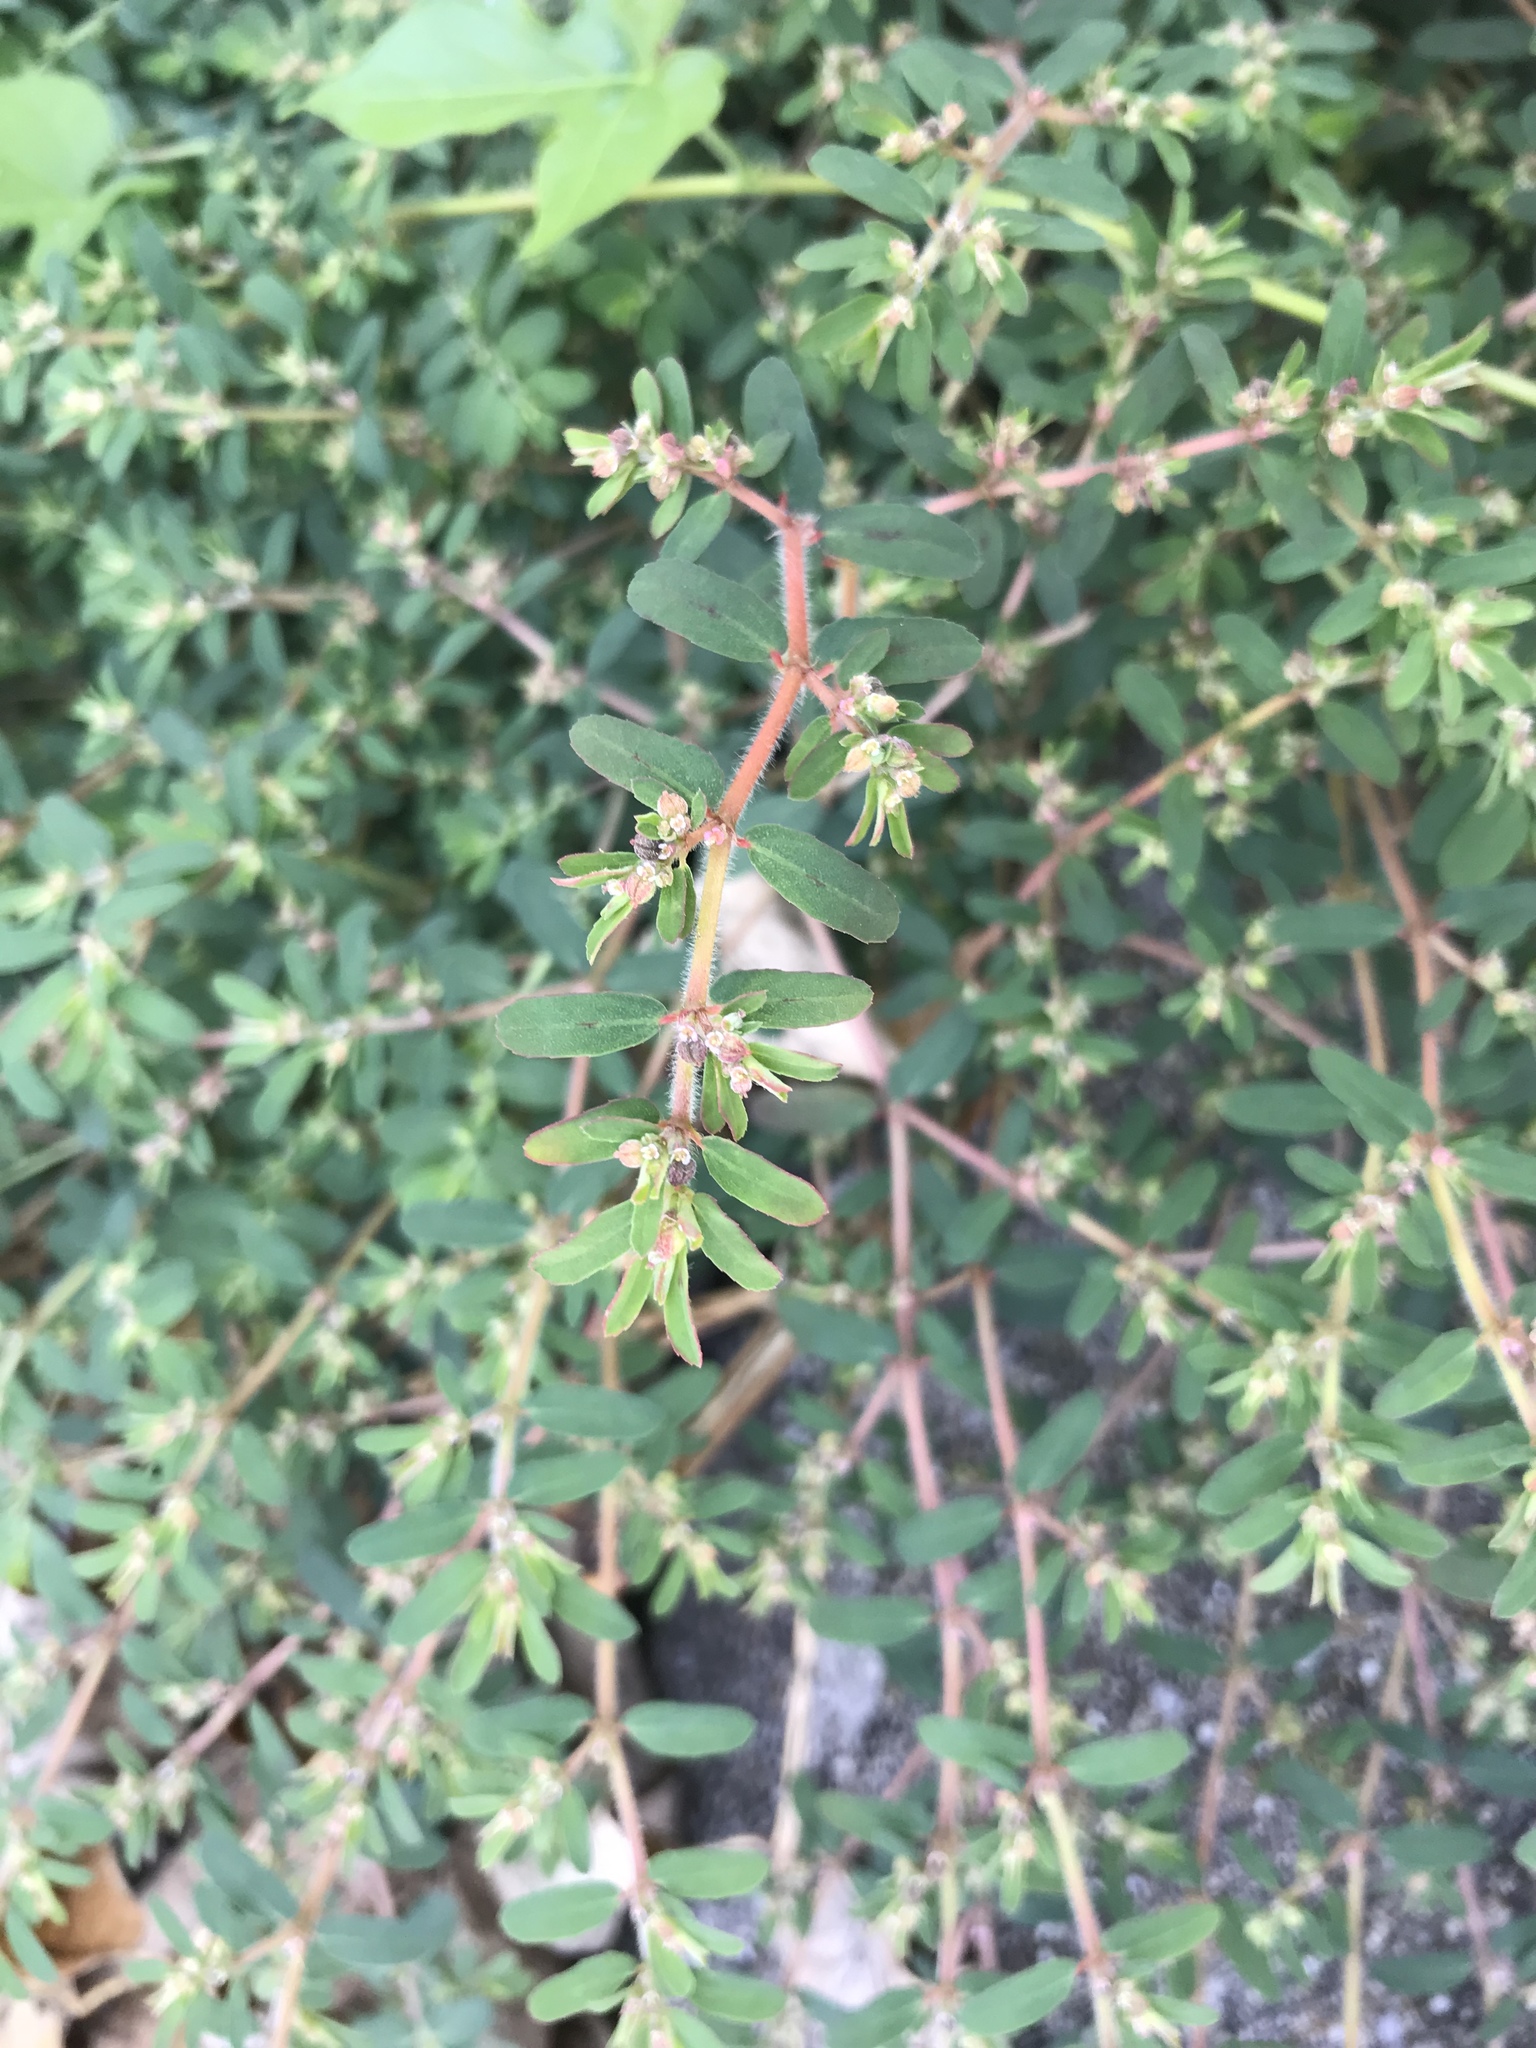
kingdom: Plantae
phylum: Tracheophyta
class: Magnoliopsida
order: Malpighiales
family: Euphorbiaceae
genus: Euphorbia
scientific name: Euphorbia maculata
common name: Spotted spurge
